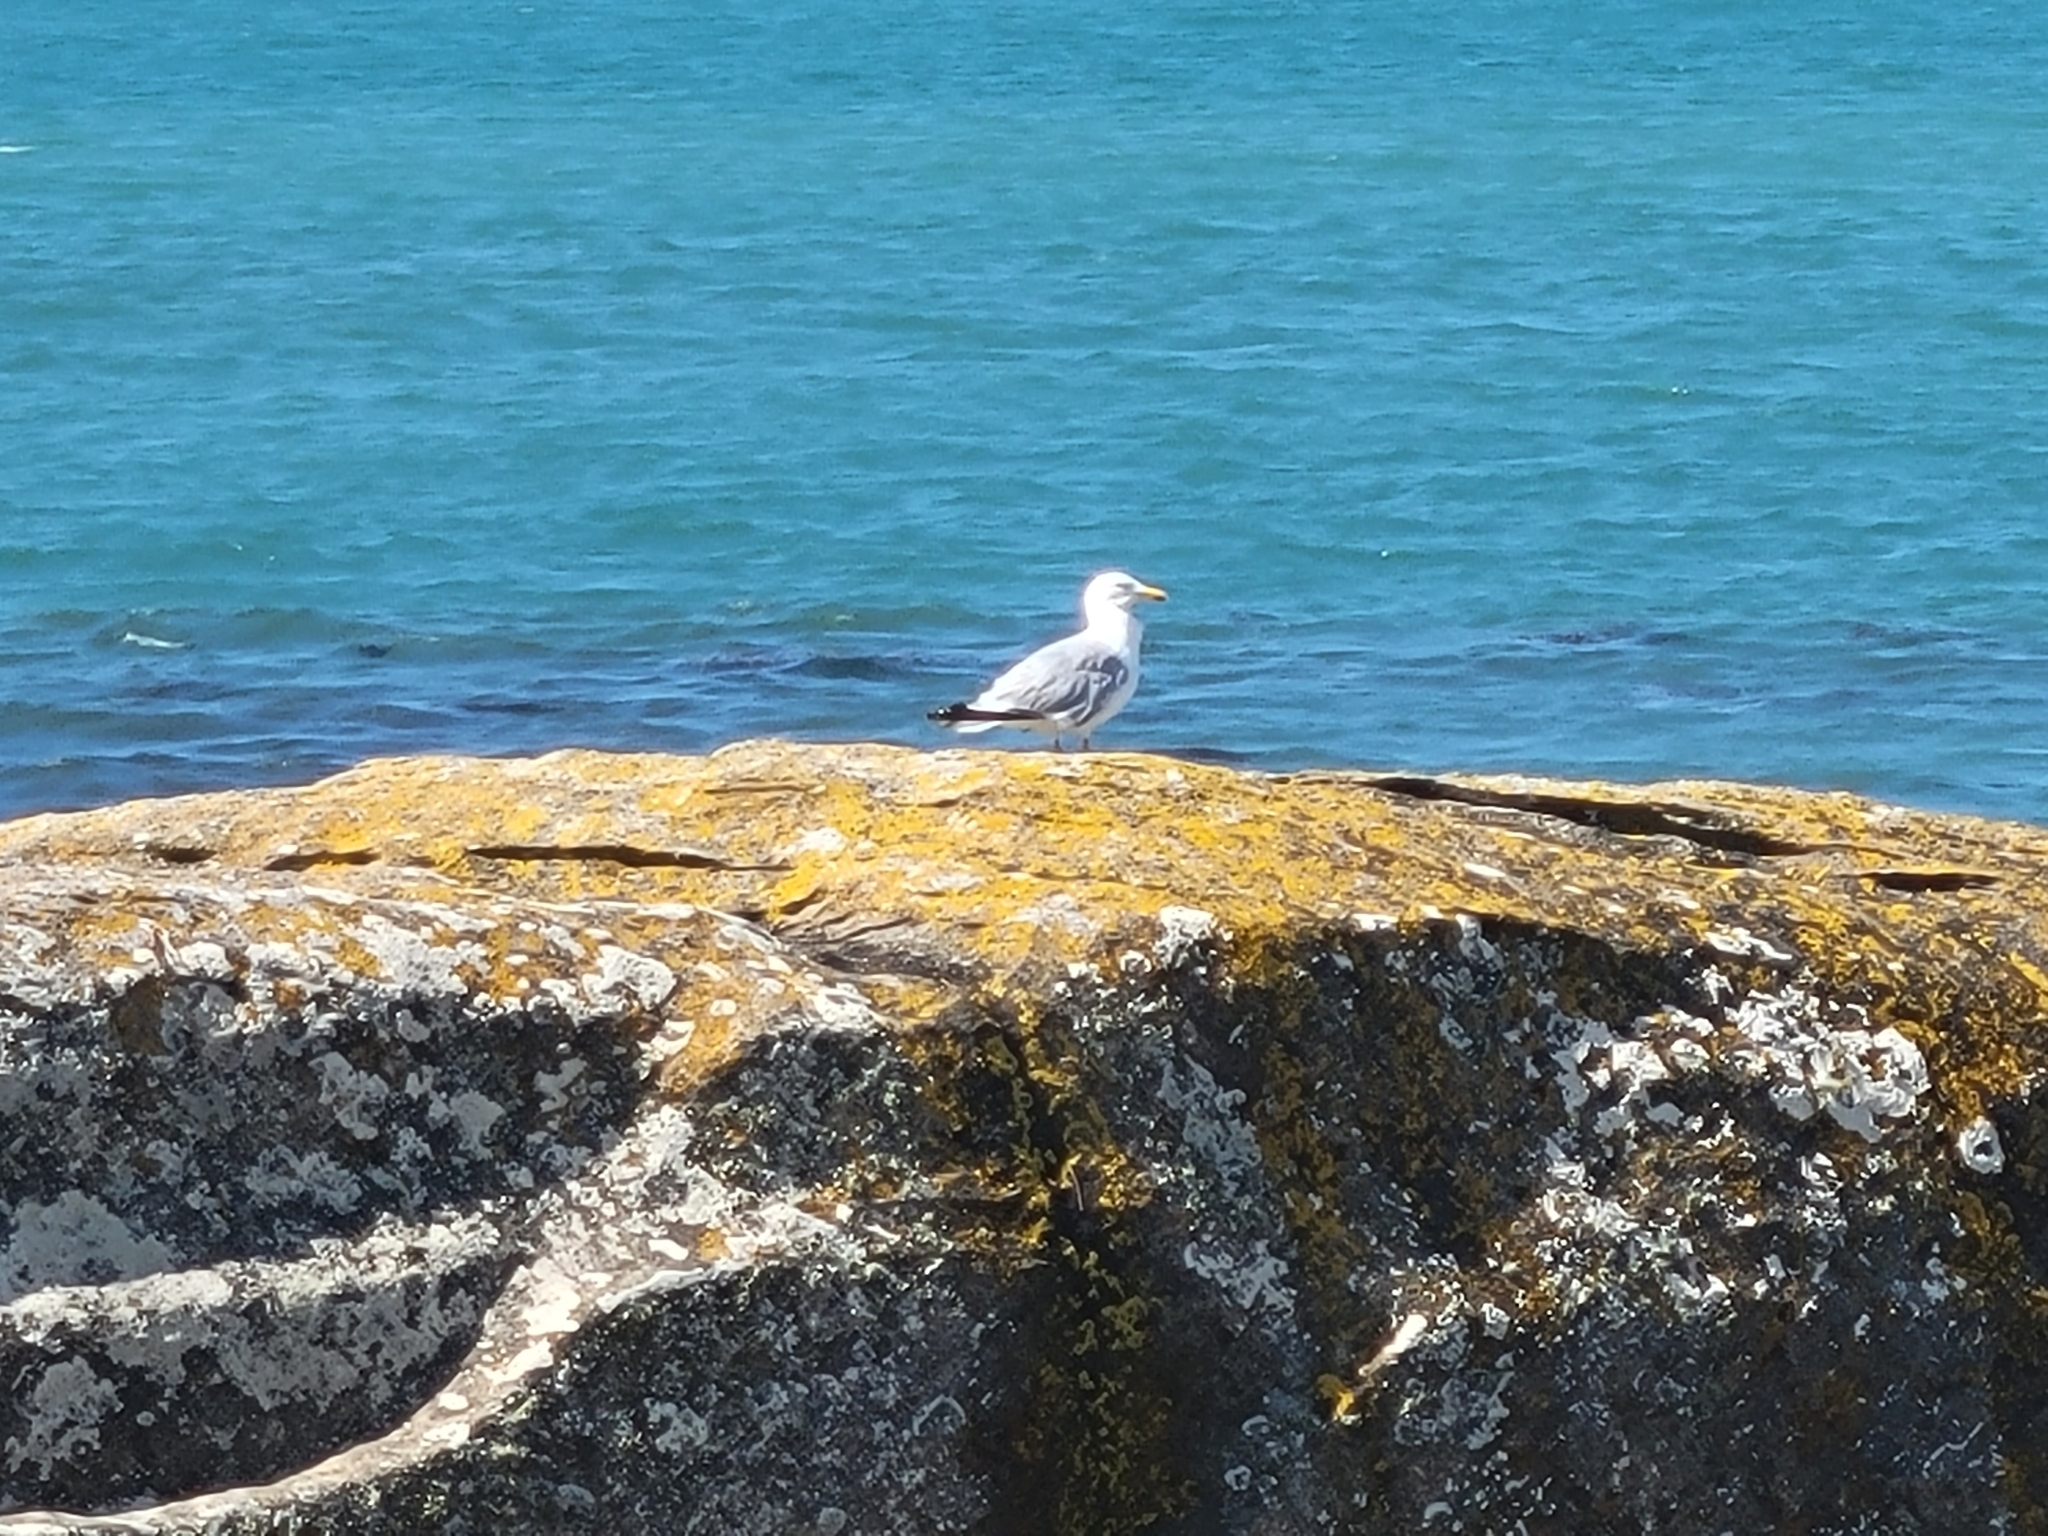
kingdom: Animalia
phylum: Chordata
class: Aves
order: Charadriiformes
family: Laridae
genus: Larus
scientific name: Larus argentatus
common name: Herring gull
